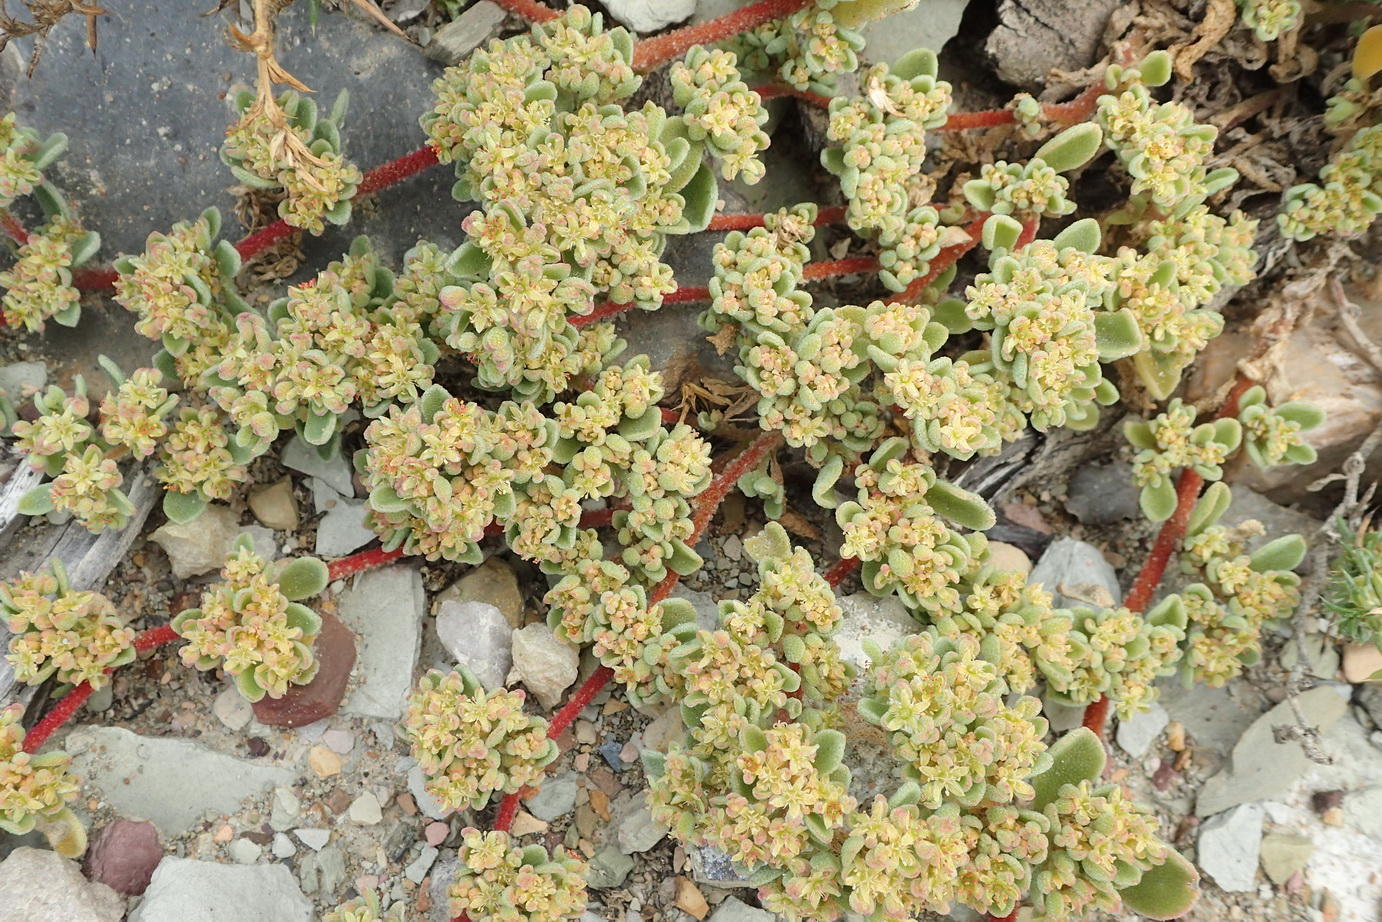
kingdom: Plantae
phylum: Tracheophyta
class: Magnoliopsida
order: Caryophyllales
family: Aizoaceae
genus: Aizoon
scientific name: Aizoon papulosum
